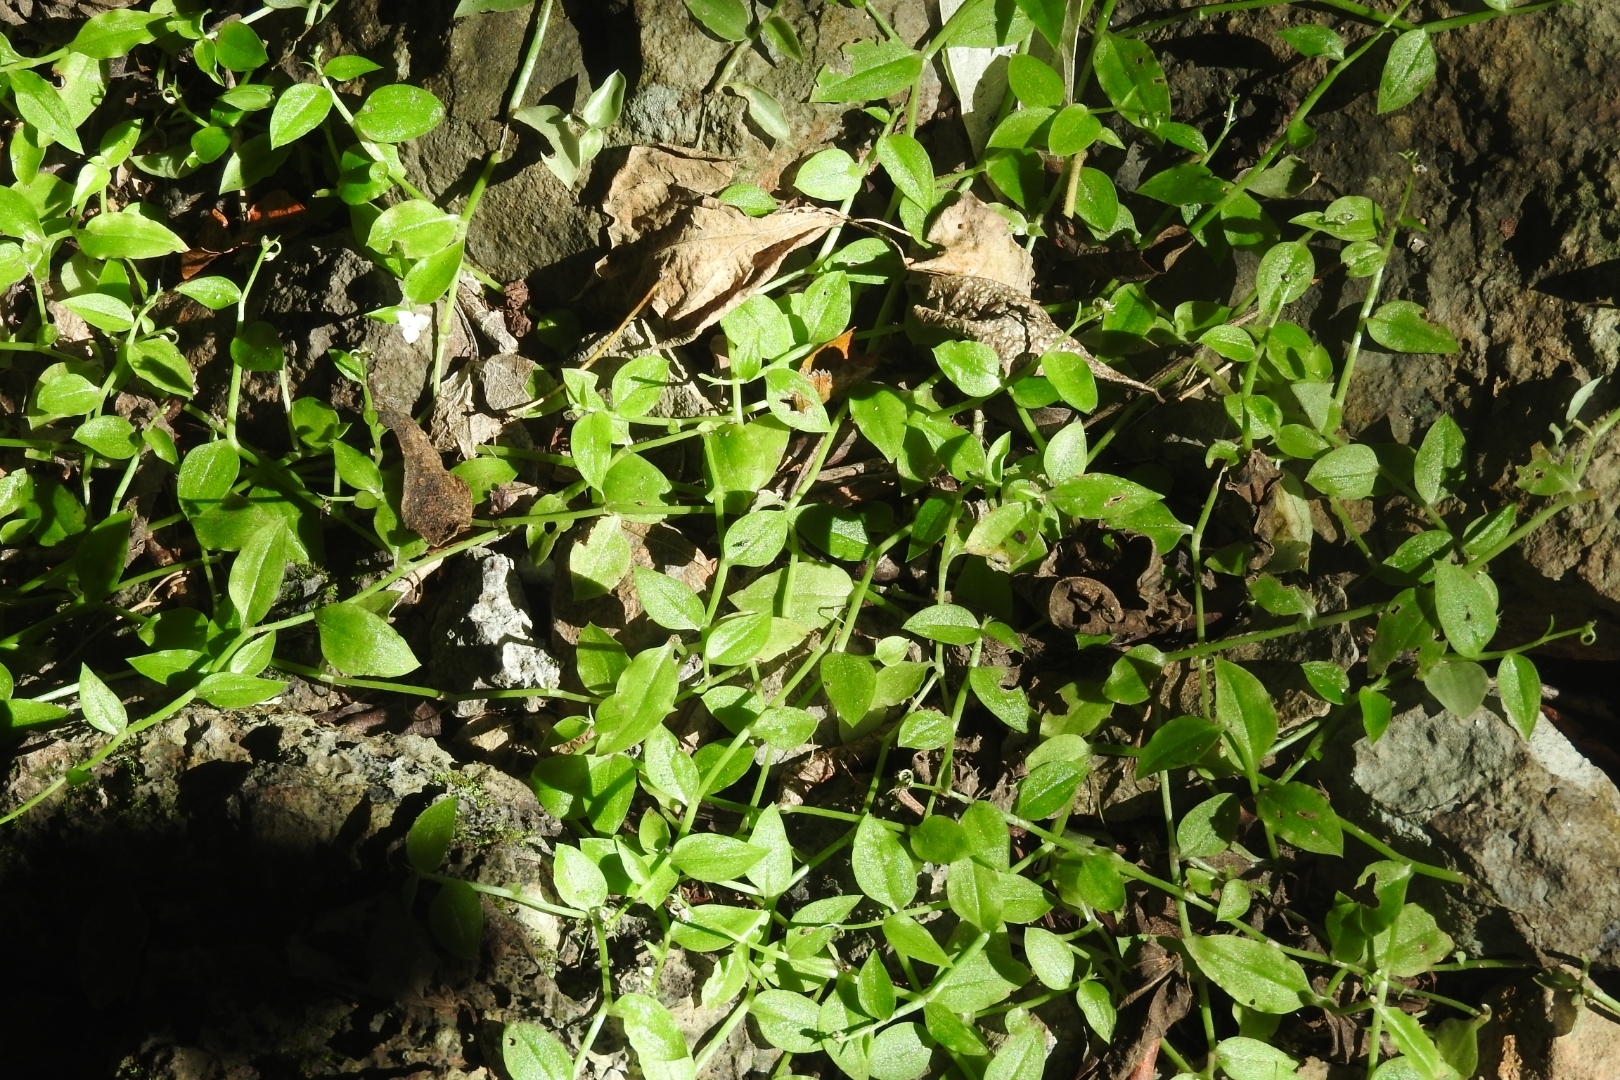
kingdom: Plantae
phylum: Tracheophyta
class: Liliopsida
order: Commelinales
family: Commelinaceae
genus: Callisia
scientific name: Callisia repens
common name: Creeping inchplant
